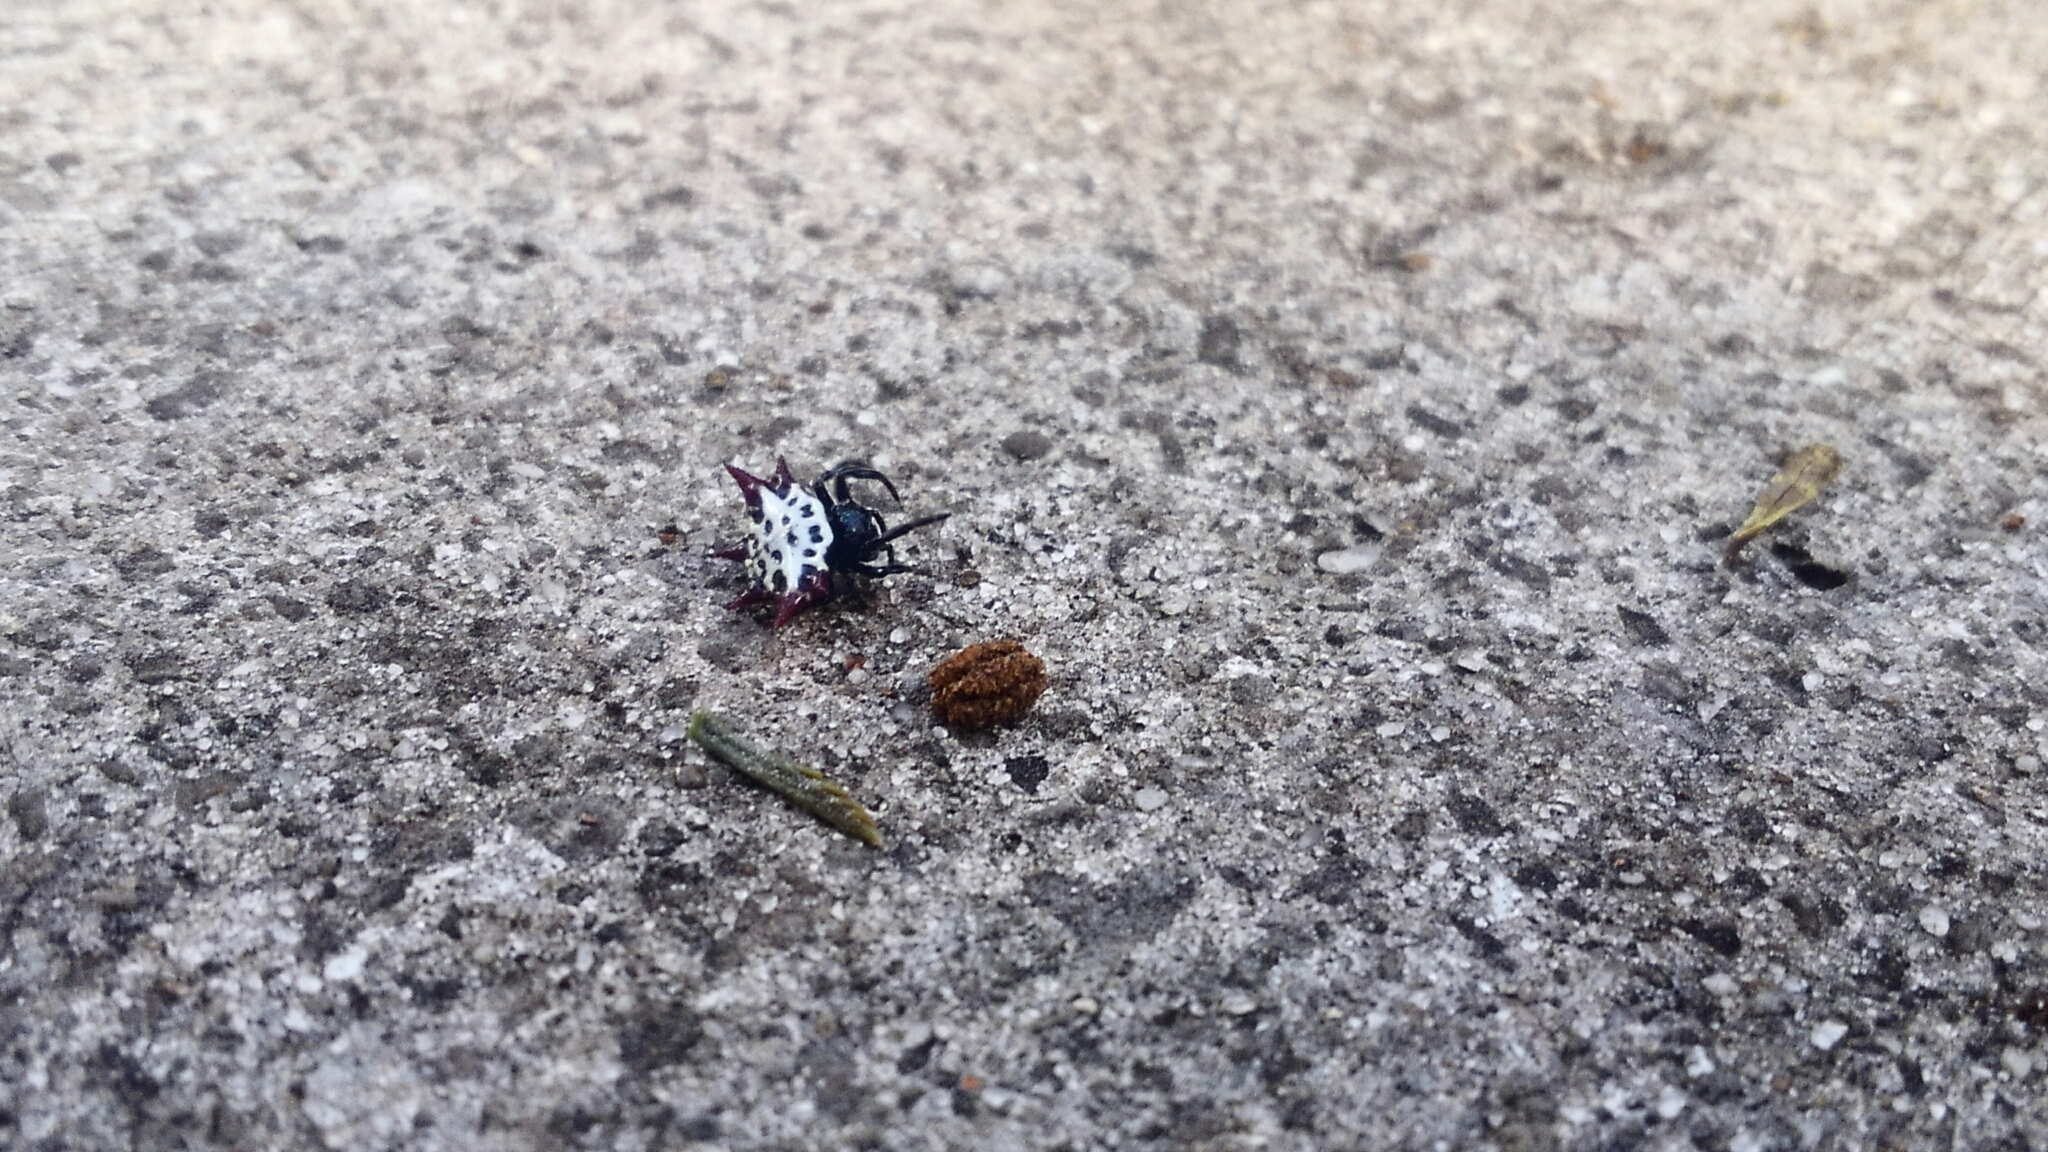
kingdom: Animalia
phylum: Arthropoda
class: Arachnida
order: Araneae
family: Araneidae
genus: Gasteracantha
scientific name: Gasteracantha cancriformis
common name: Orb weavers
